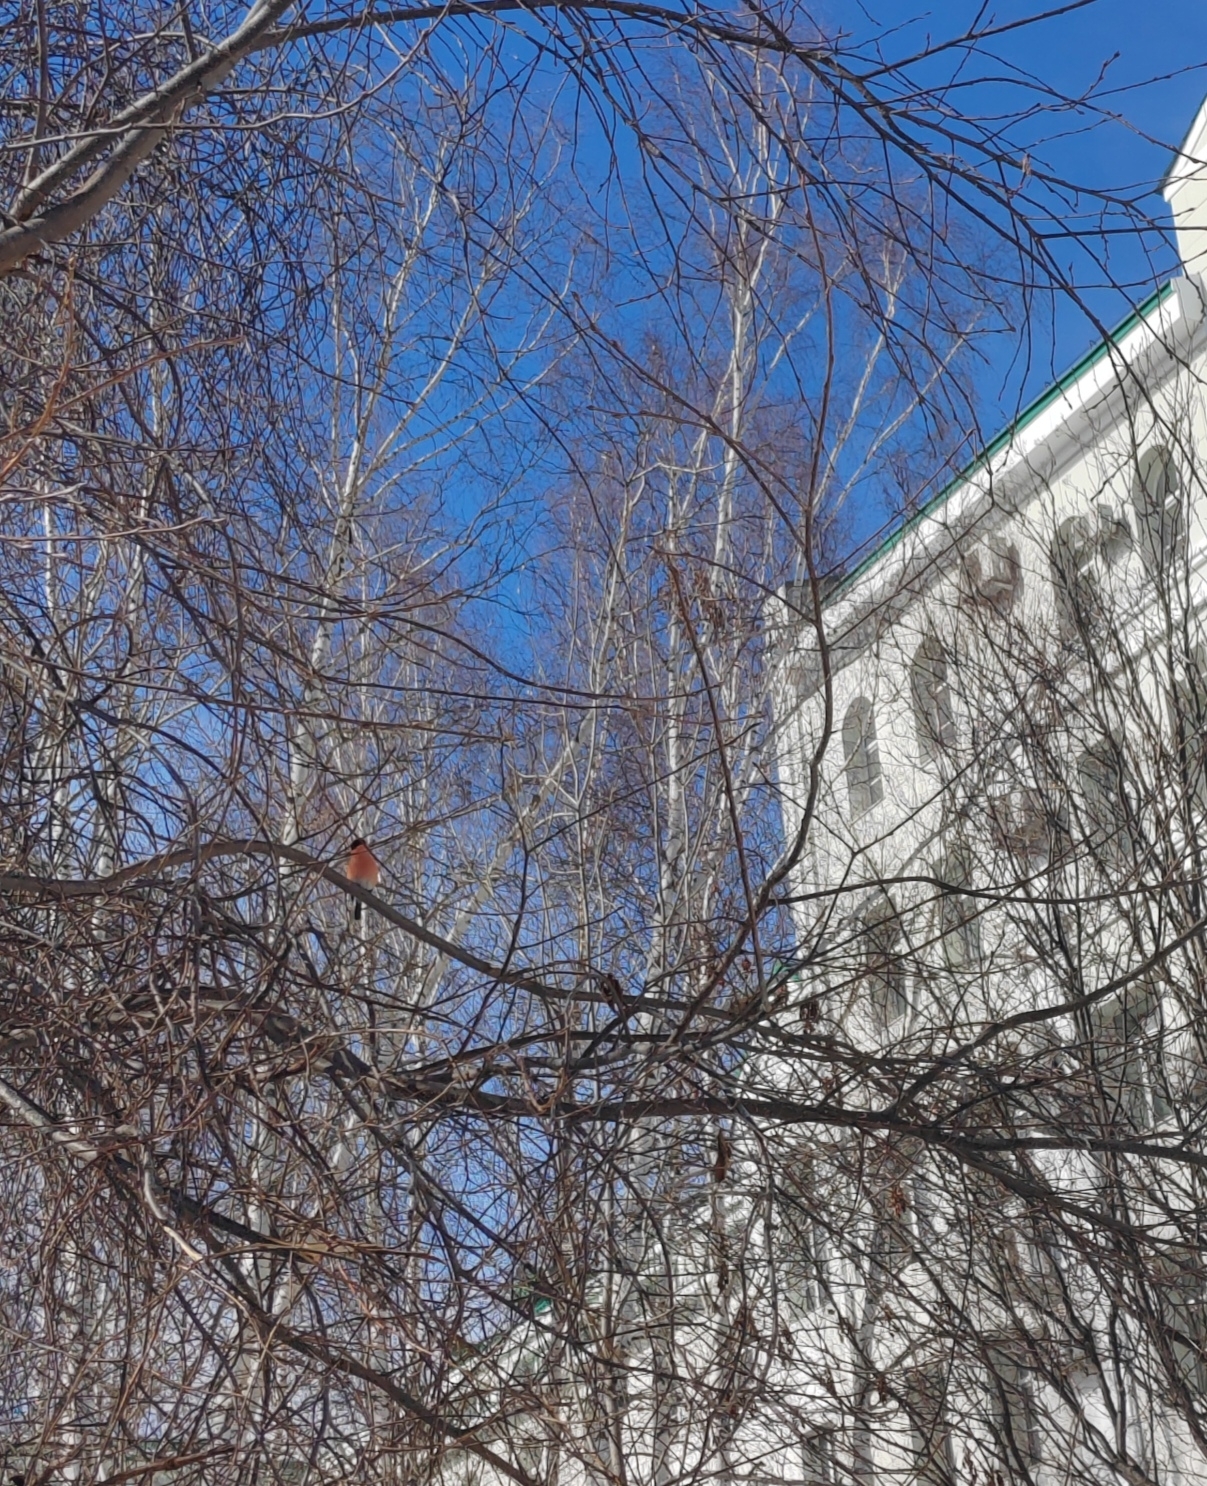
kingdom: Animalia
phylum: Chordata
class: Aves
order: Passeriformes
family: Fringillidae
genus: Pyrrhula
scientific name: Pyrrhula pyrrhula
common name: Eurasian bullfinch
